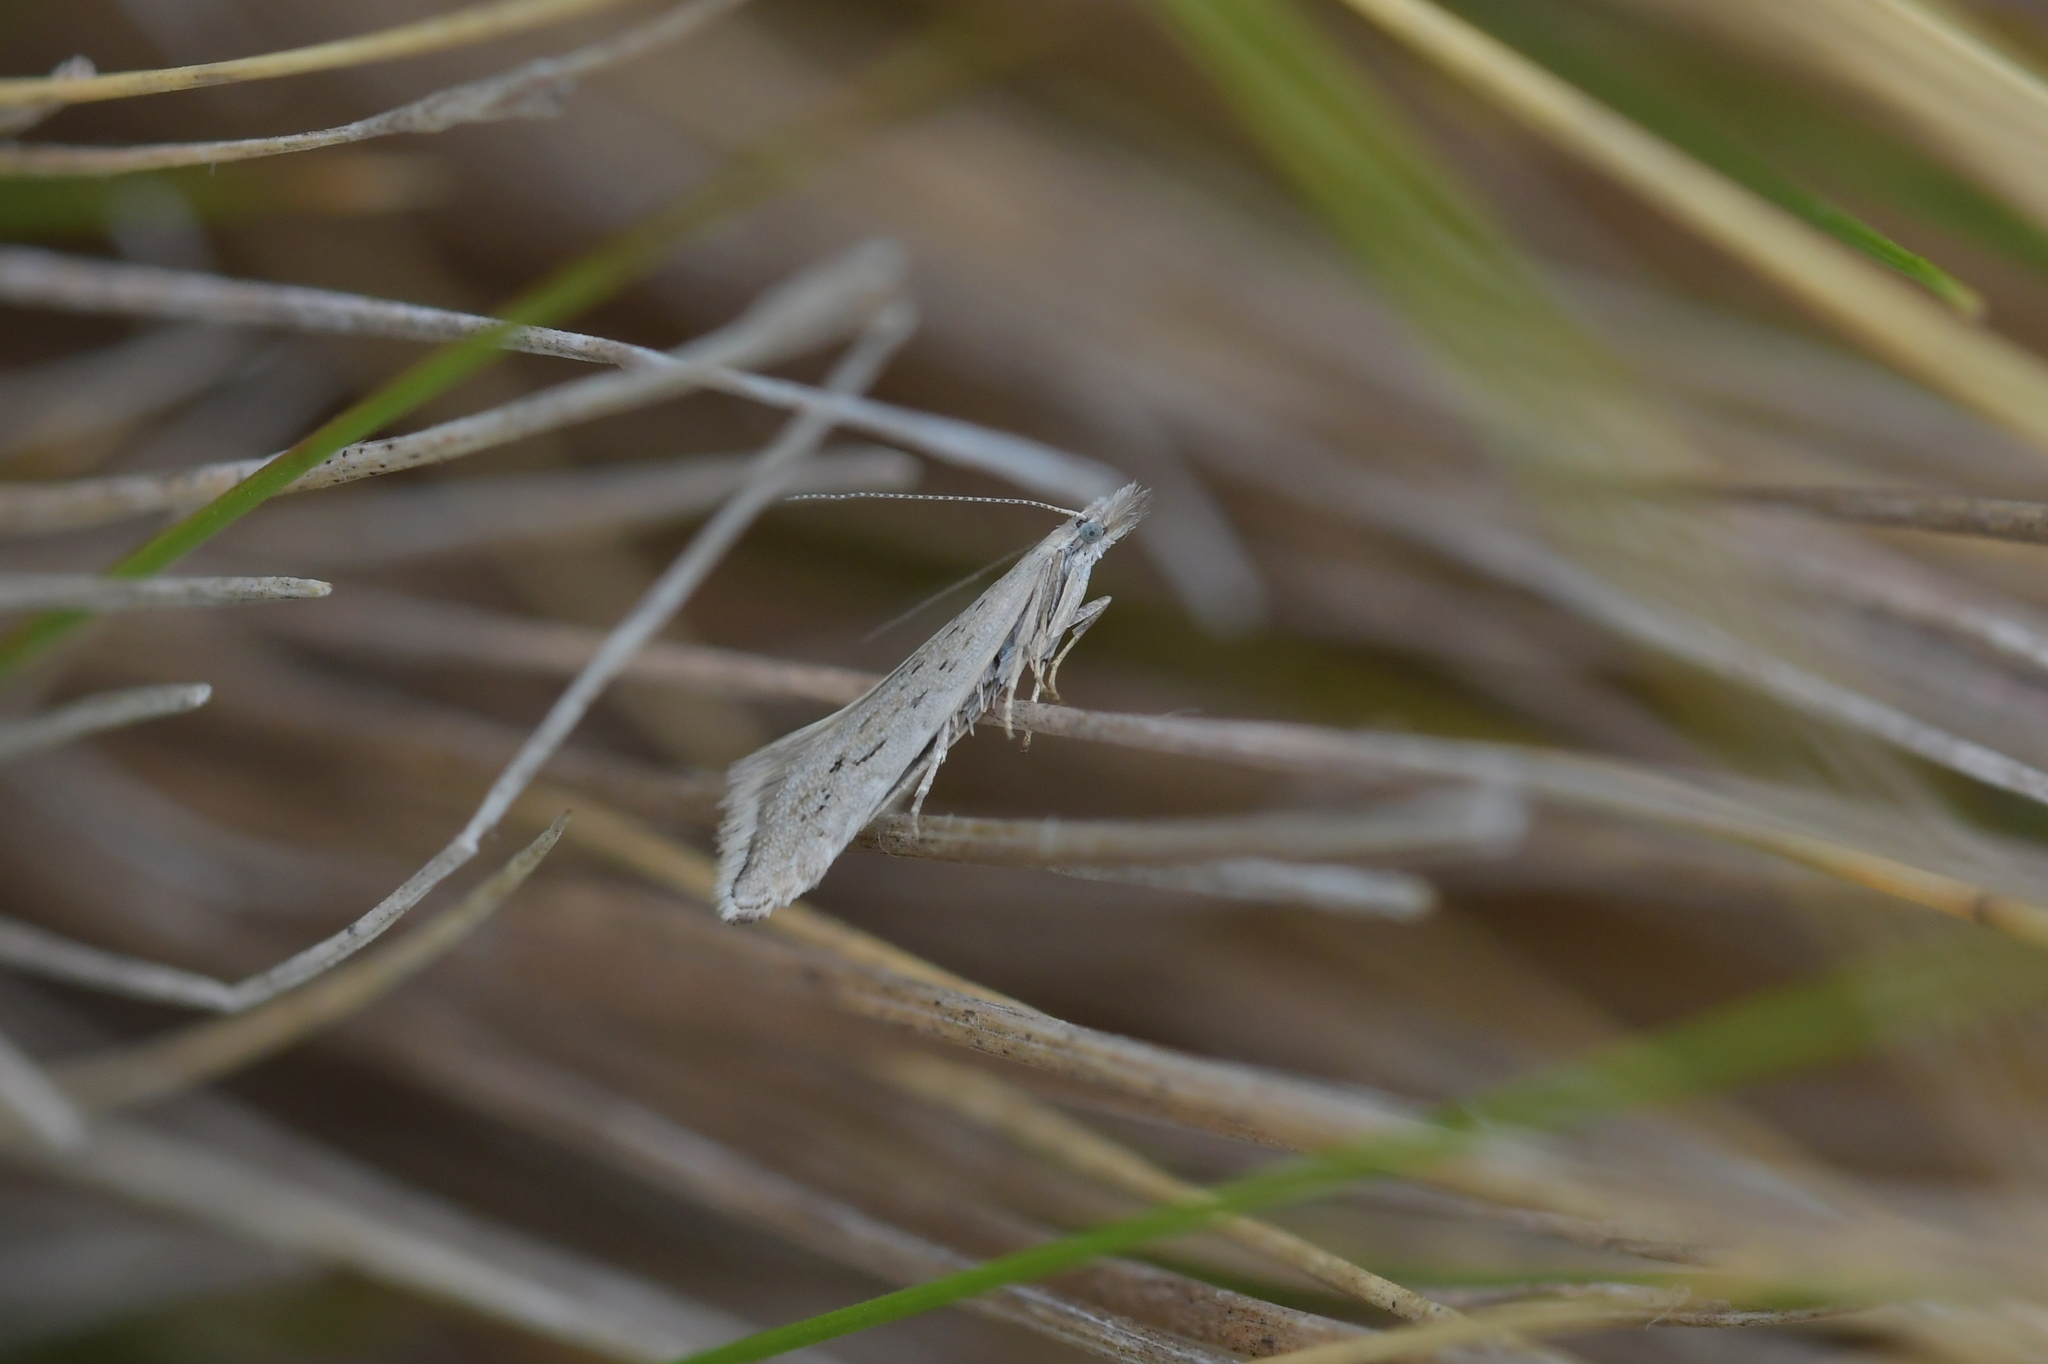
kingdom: Animalia
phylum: Arthropoda
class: Insecta
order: Lepidoptera
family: Glyphipterigidae
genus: Glyphipterix
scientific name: Glyphipterix achlyoessa
